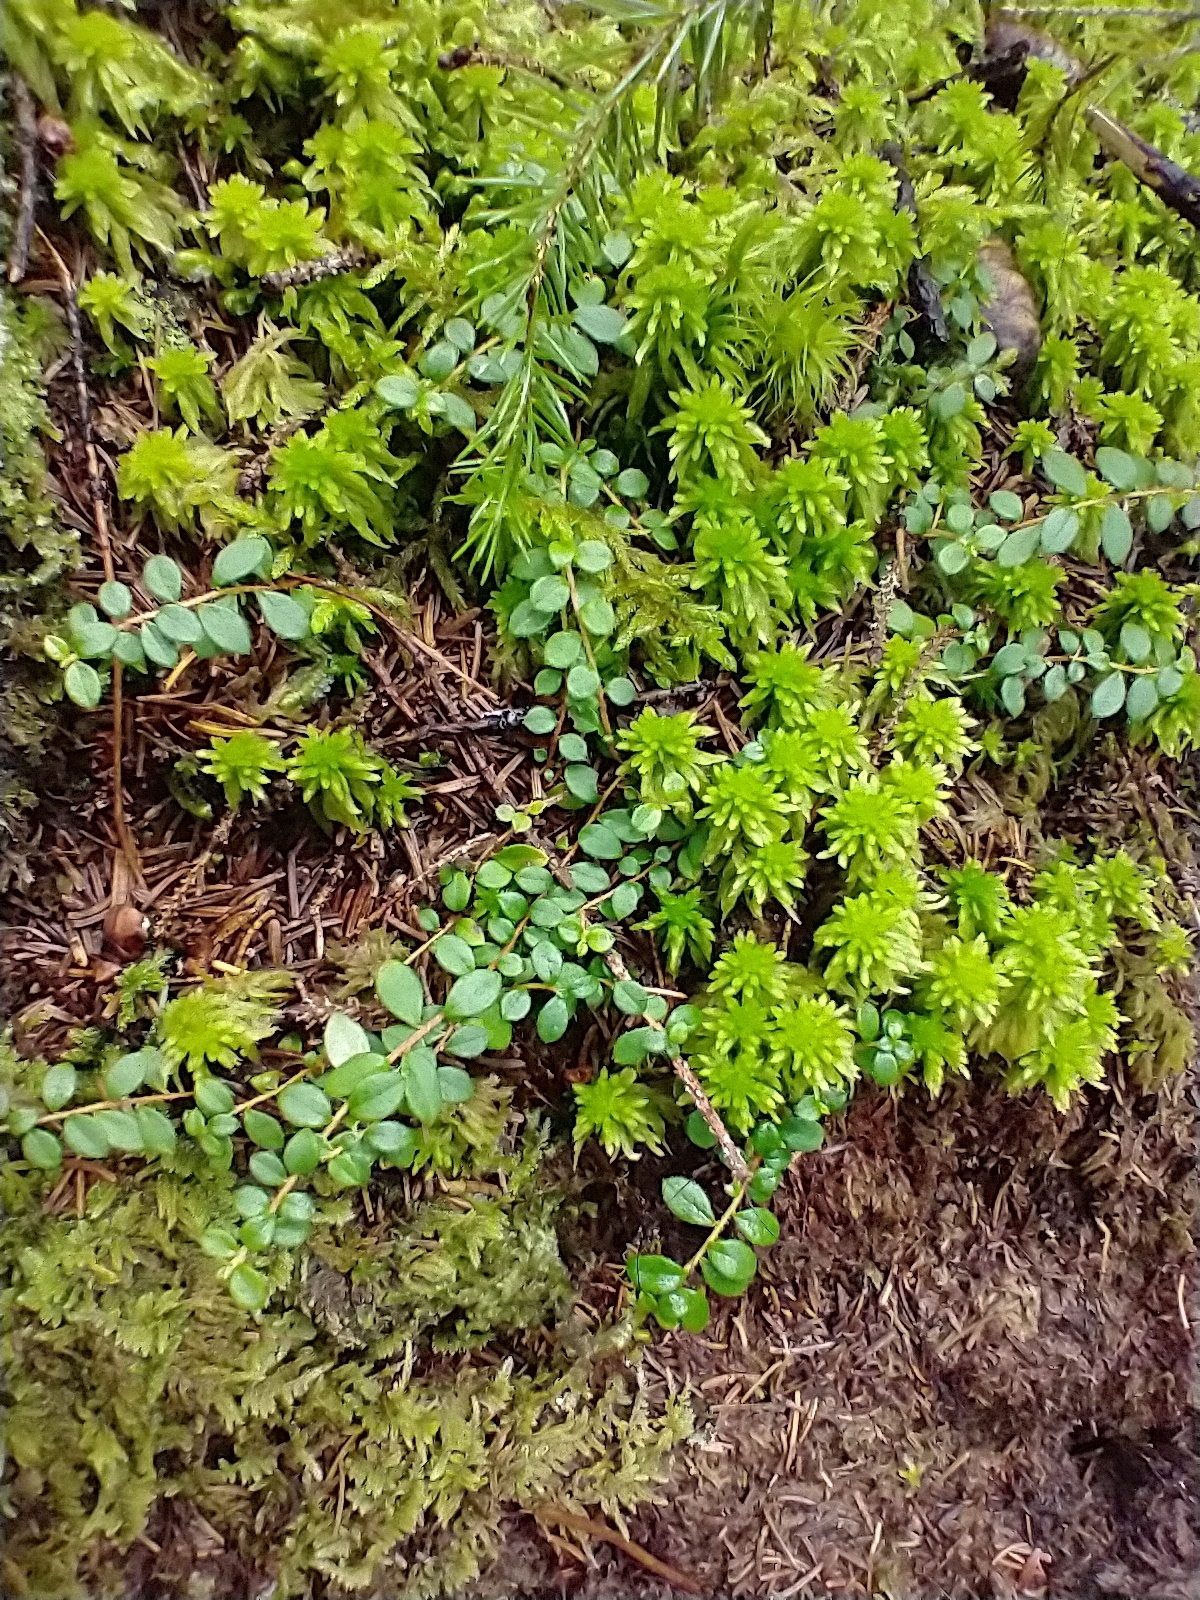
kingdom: Plantae
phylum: Tracheophyta
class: Magnoliopsida
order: Ericales
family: Ericaceae
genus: Gaultheria
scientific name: Gaultheria hispidula
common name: Cancer wintergreen
